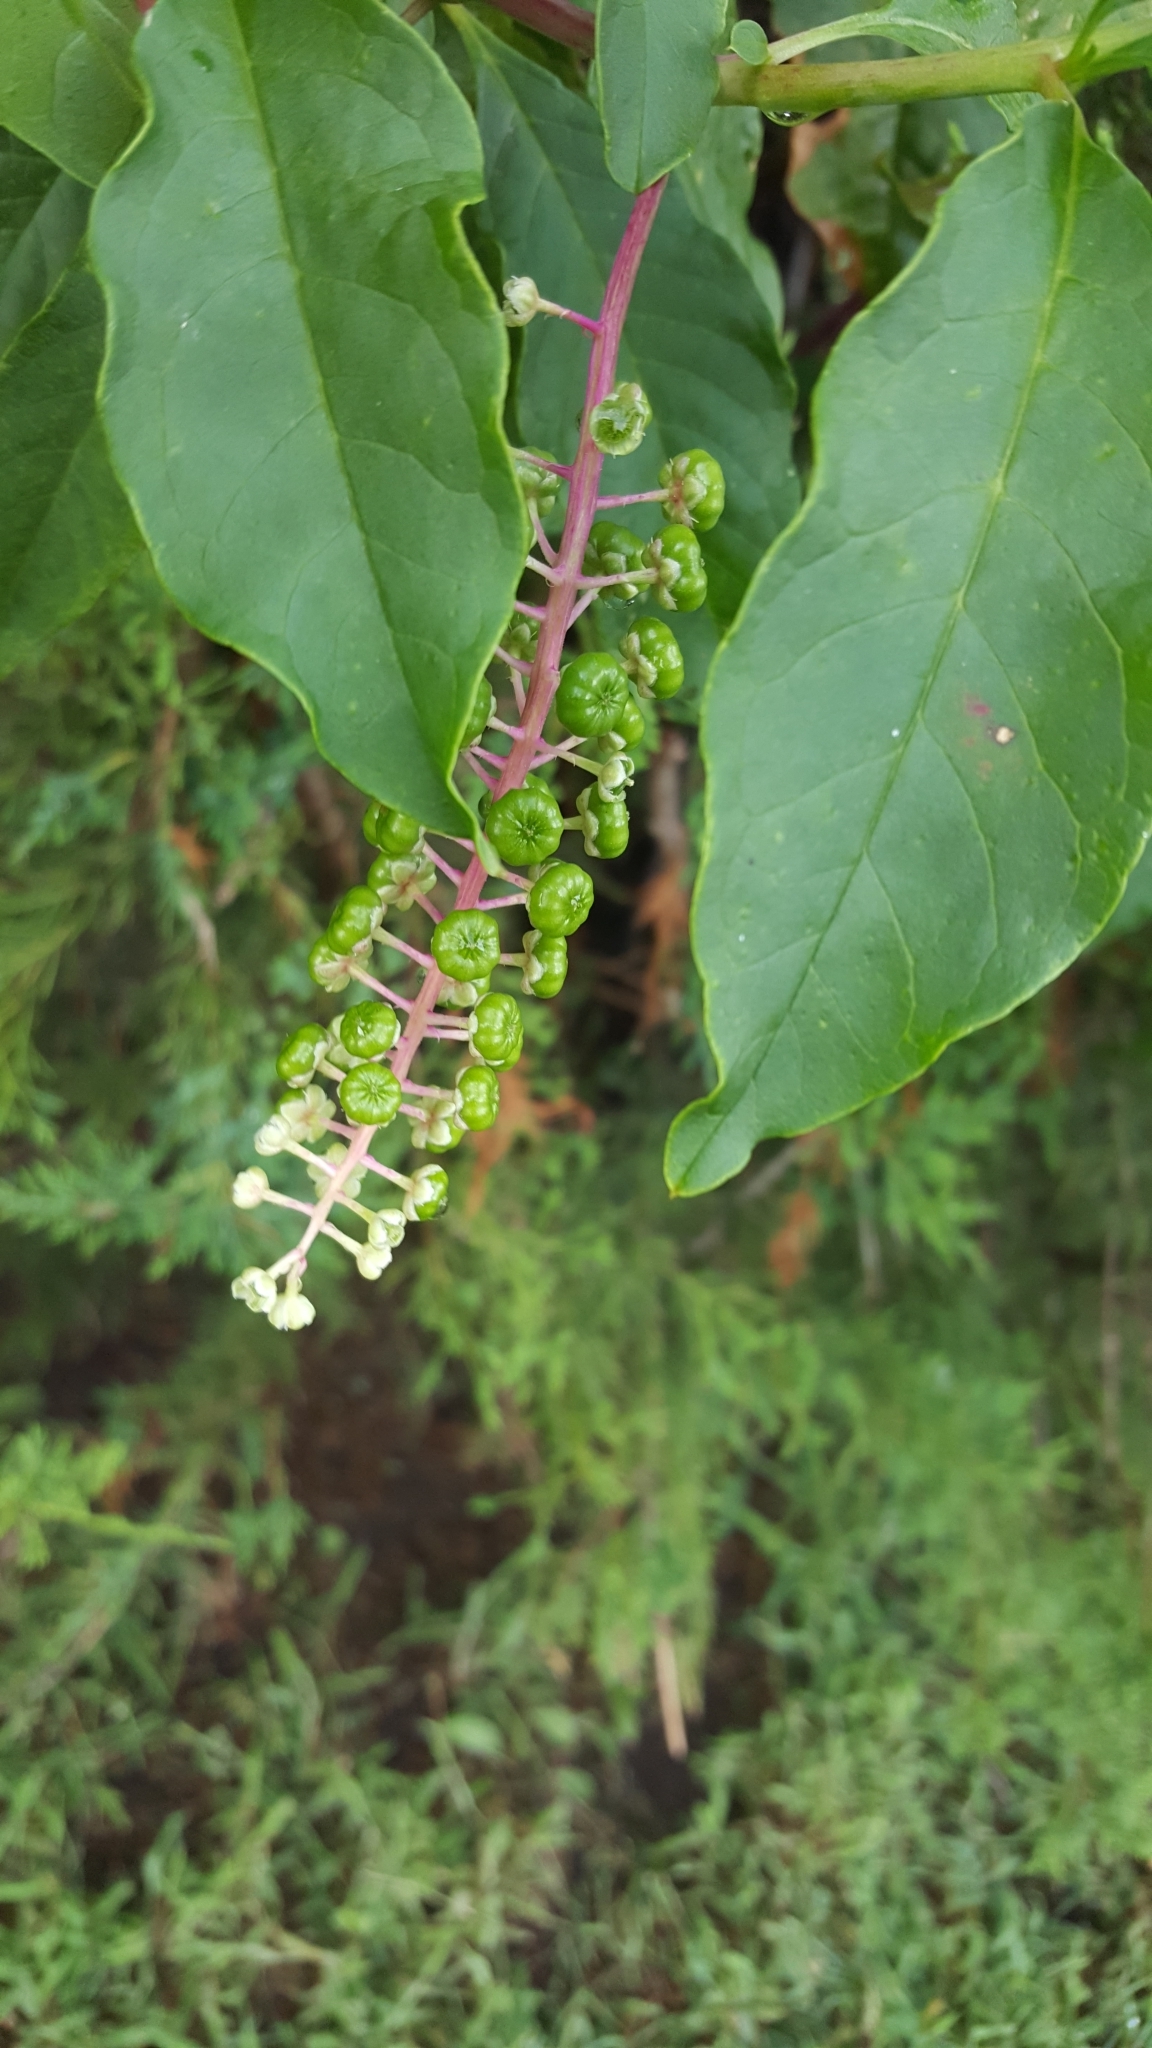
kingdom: Plantae
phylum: Tracheophyta
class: Magnoliopsida
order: Caryophyllales
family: Phytolaccaceae
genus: Phytolacca
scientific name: Phytolacca americana
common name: American pokeweed
